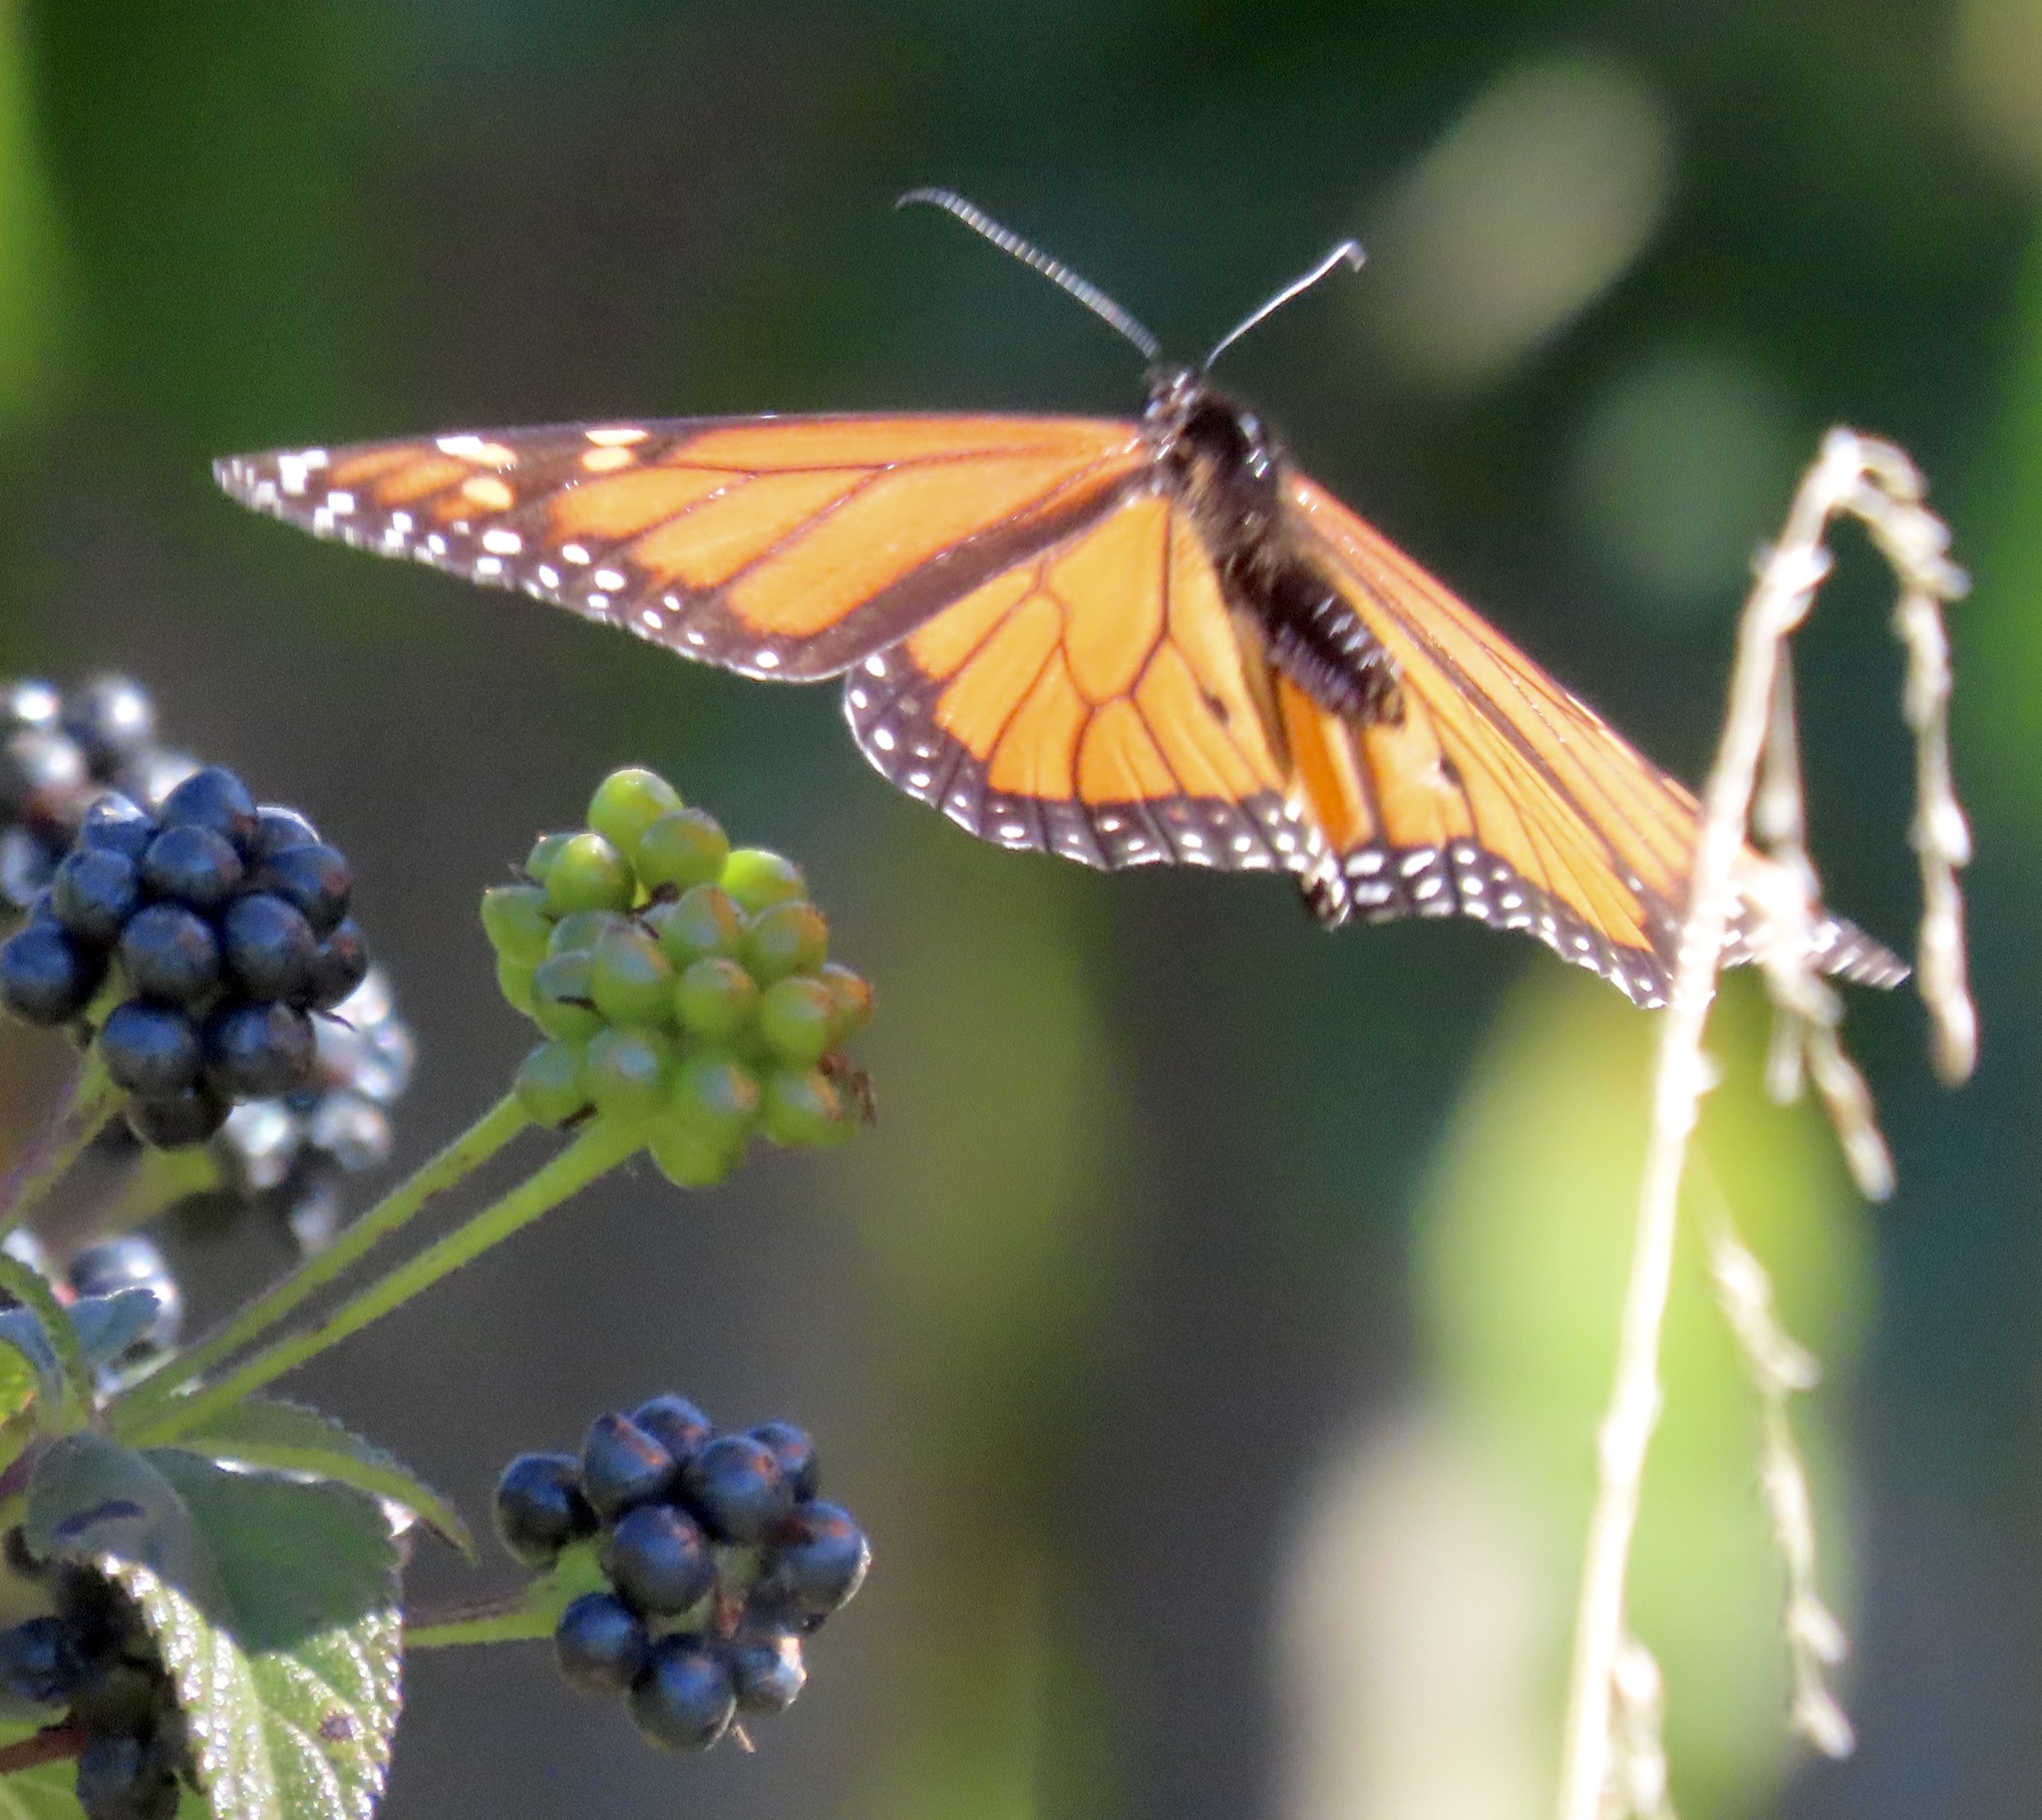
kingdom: Animalia
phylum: Arthropoda
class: Insecta
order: Lepidoptera
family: Nymphalidae
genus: Danaus
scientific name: Danaus plexippus
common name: Monarch
